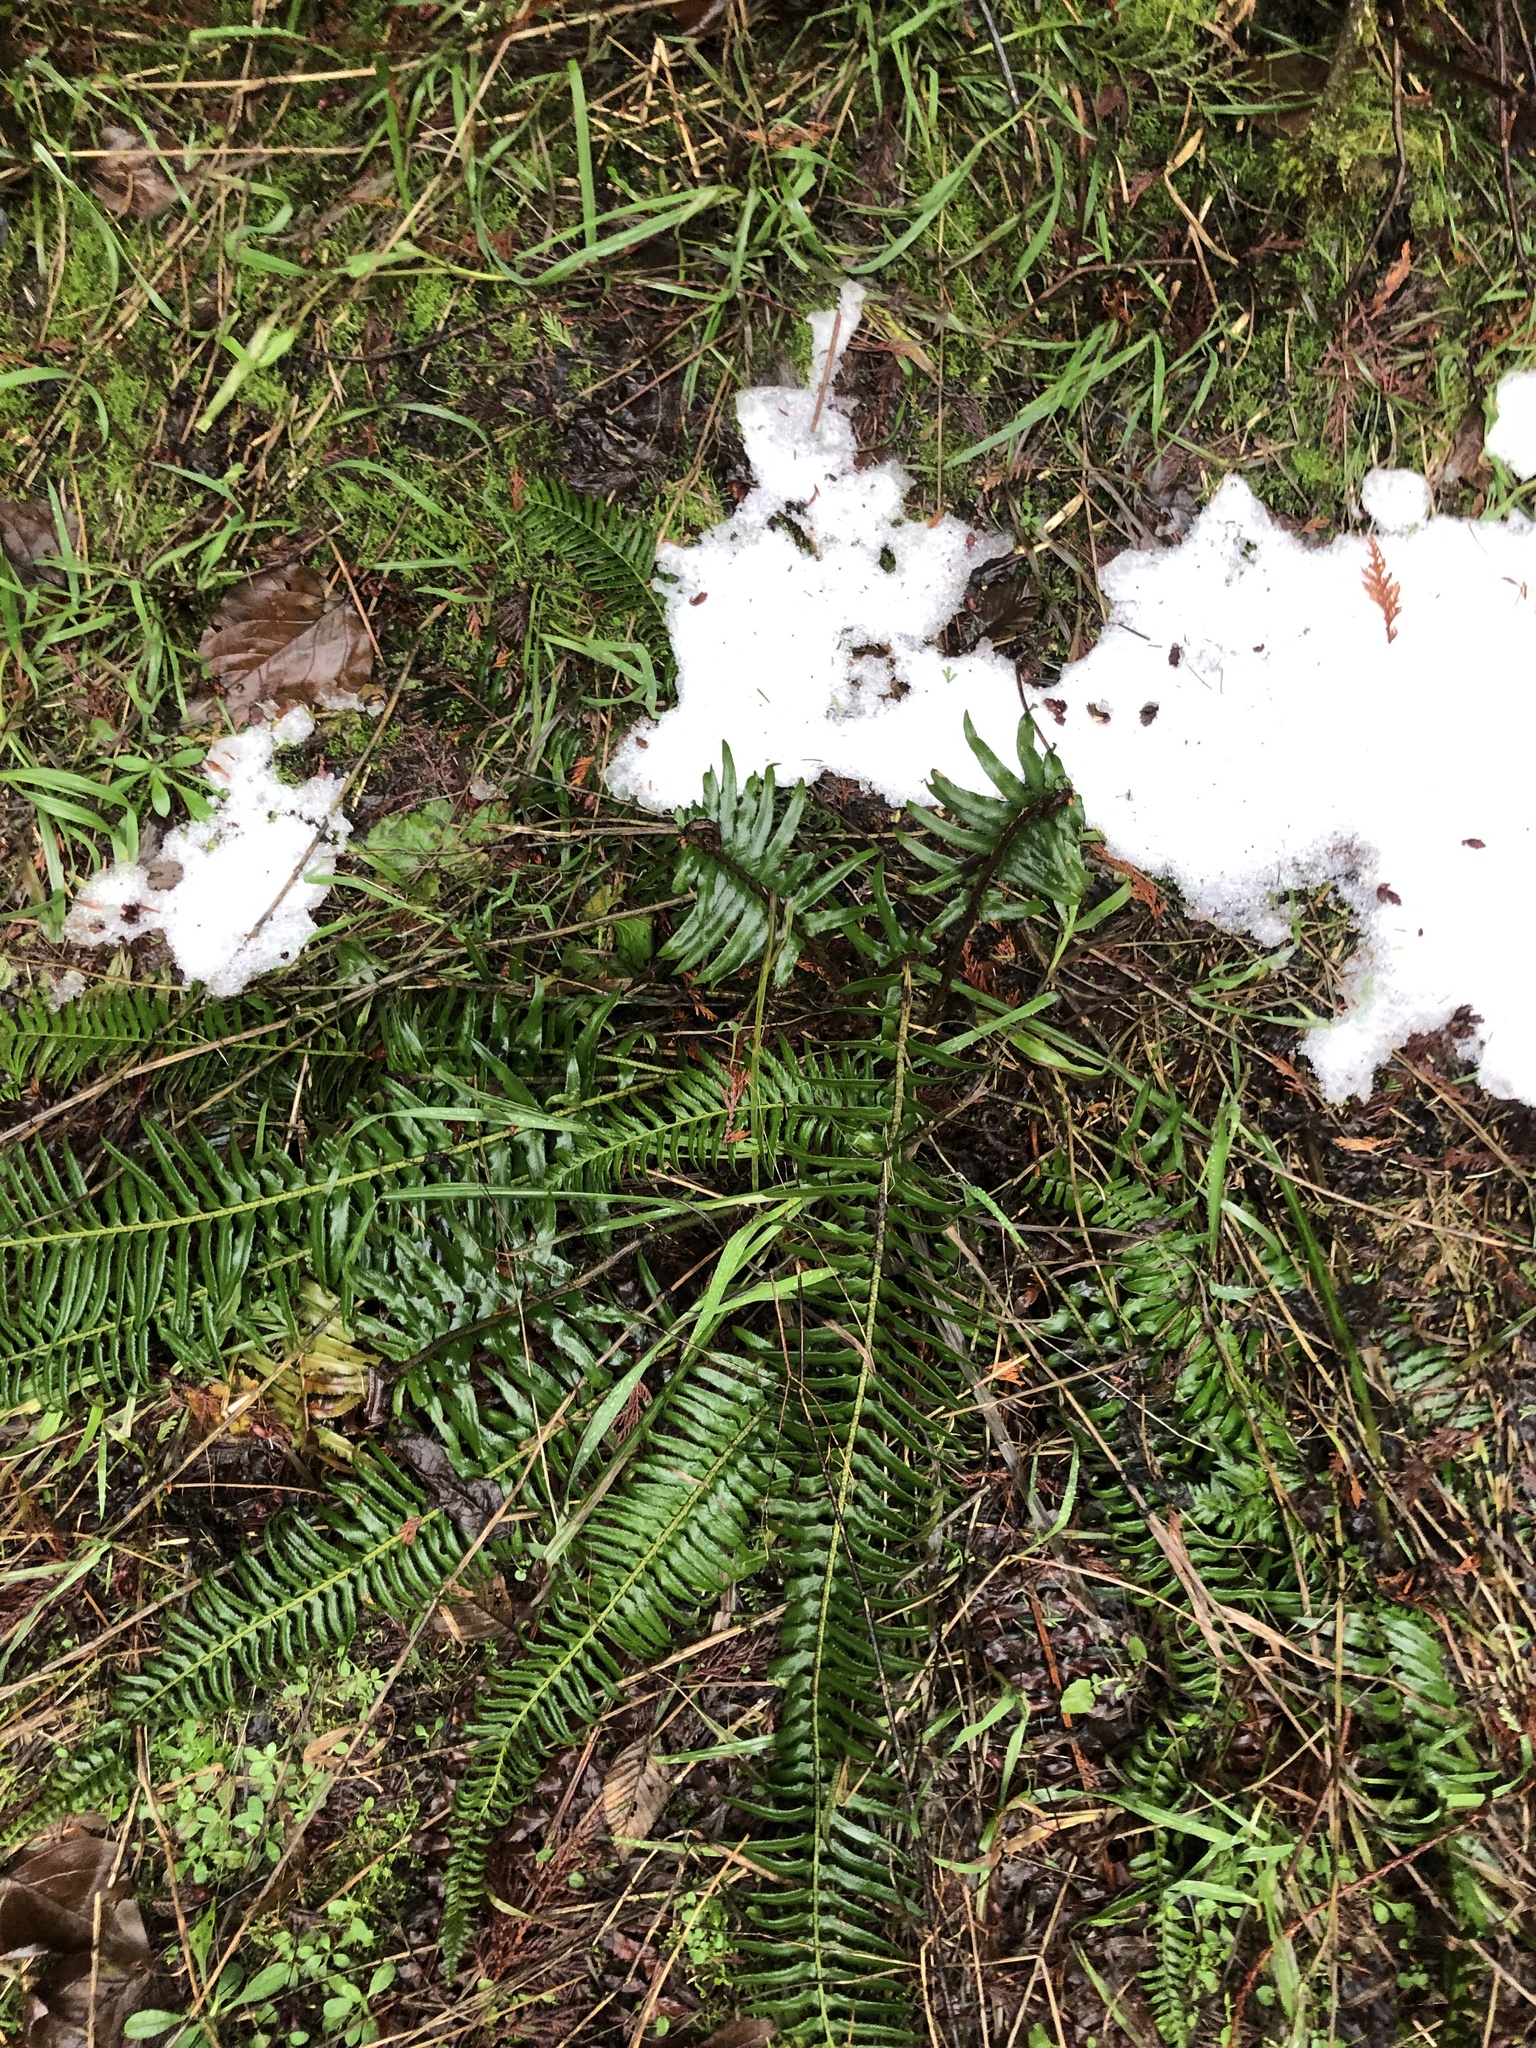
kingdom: Plantae
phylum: Tracheophyta
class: Polypodiopsida
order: Polypodiales
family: Dryopteridaceae
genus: Polystichum
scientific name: Polystichum munitum
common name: Western sword-fern
